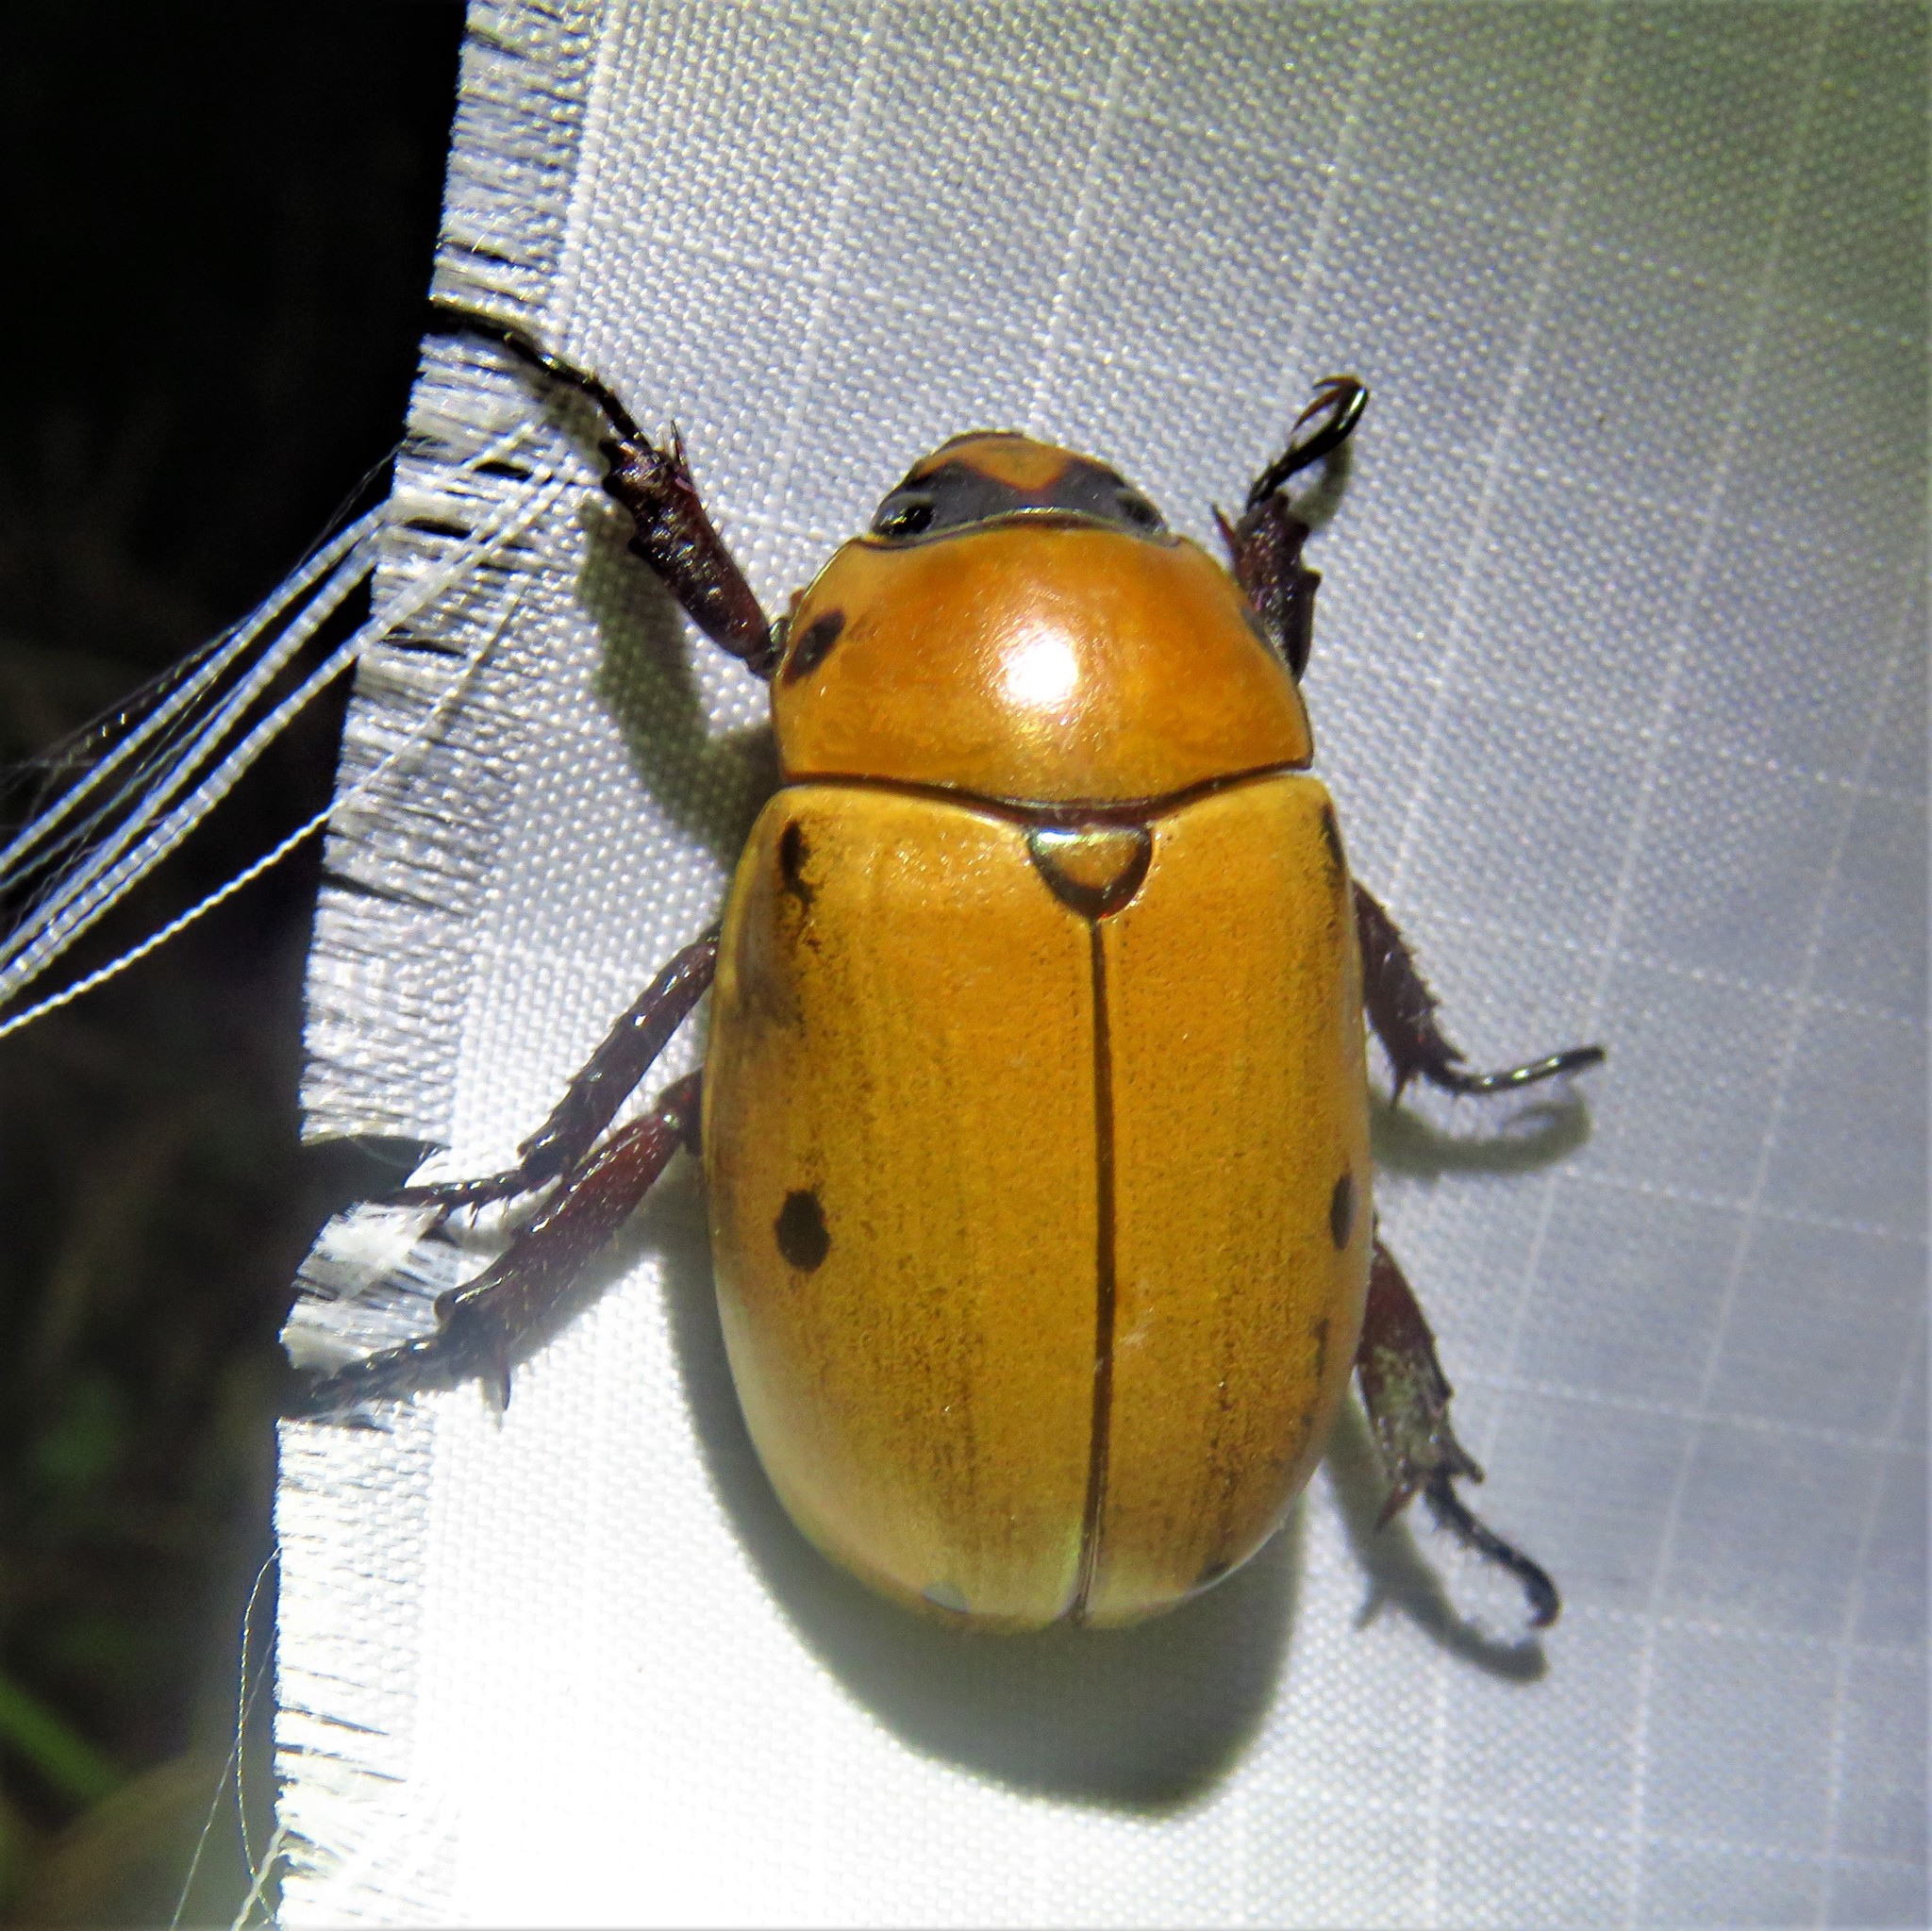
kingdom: Animalia
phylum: Arthropoda
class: Insecta
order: Coleoptera
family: Scarabaeidae
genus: Pelidnota
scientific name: Pelidnota punctata
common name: Grapevine beetle
